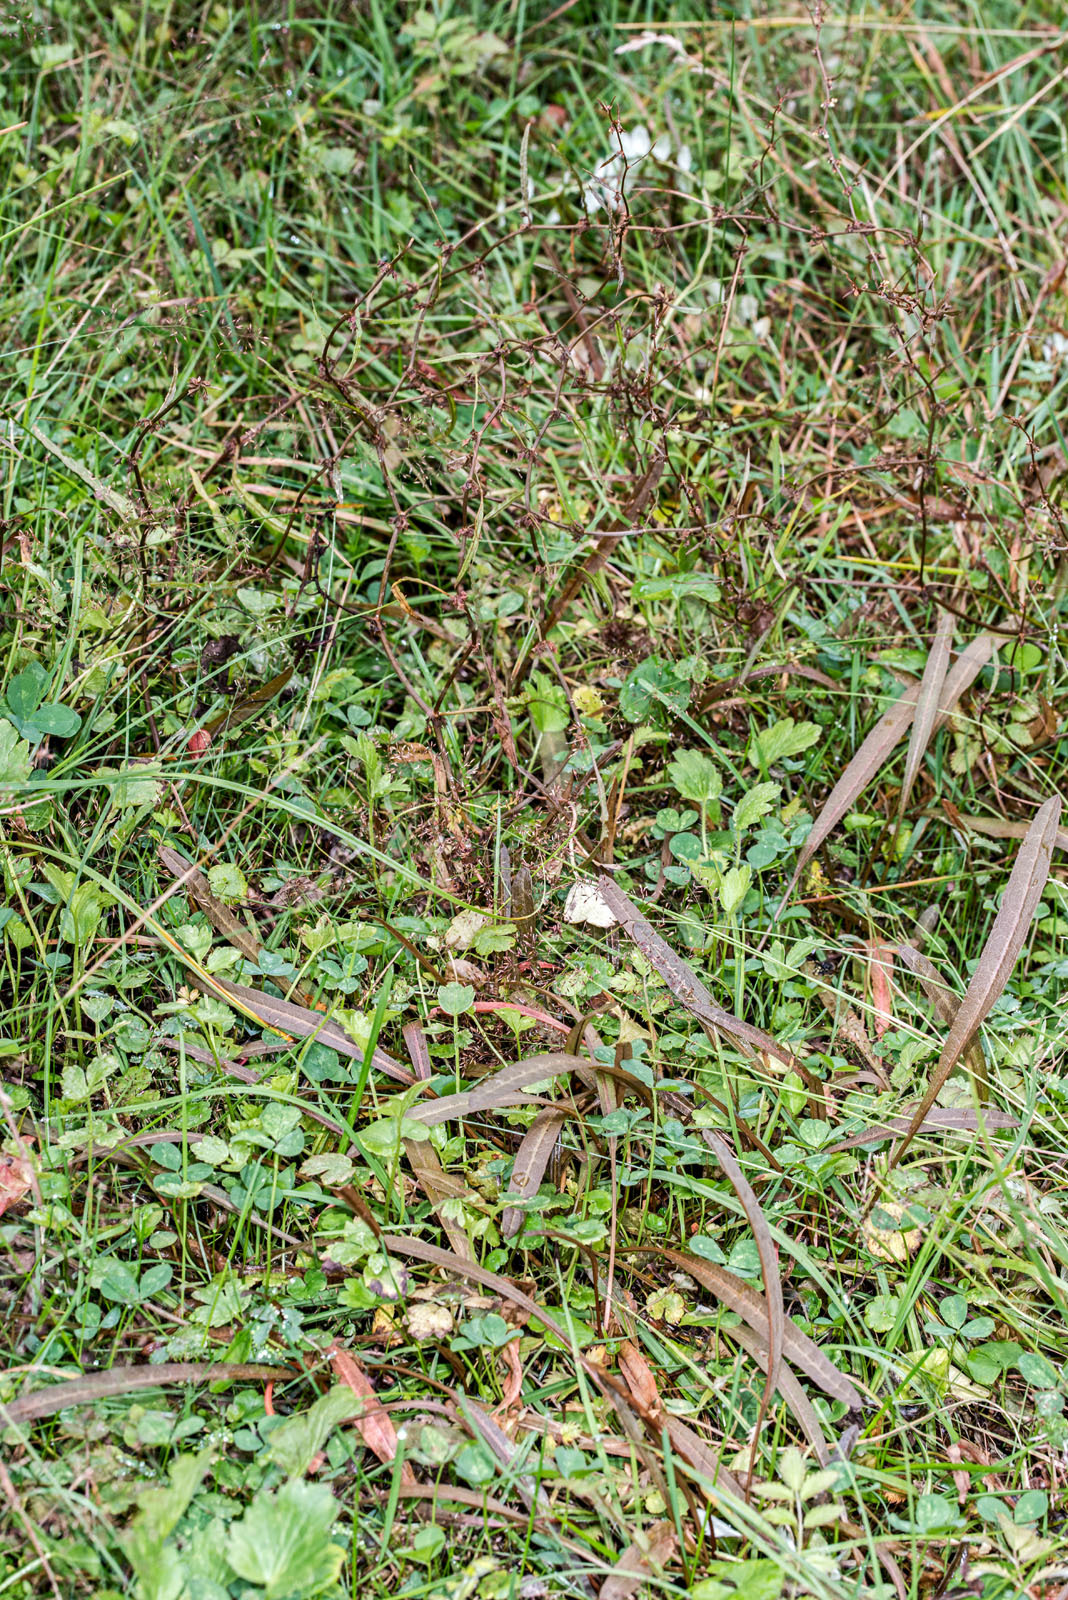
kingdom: Plantae
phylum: Tracheophyta
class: Magnoliopsida
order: Caryophyllales
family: Polygonaceae
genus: Rumex
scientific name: Rumex flexuosus
